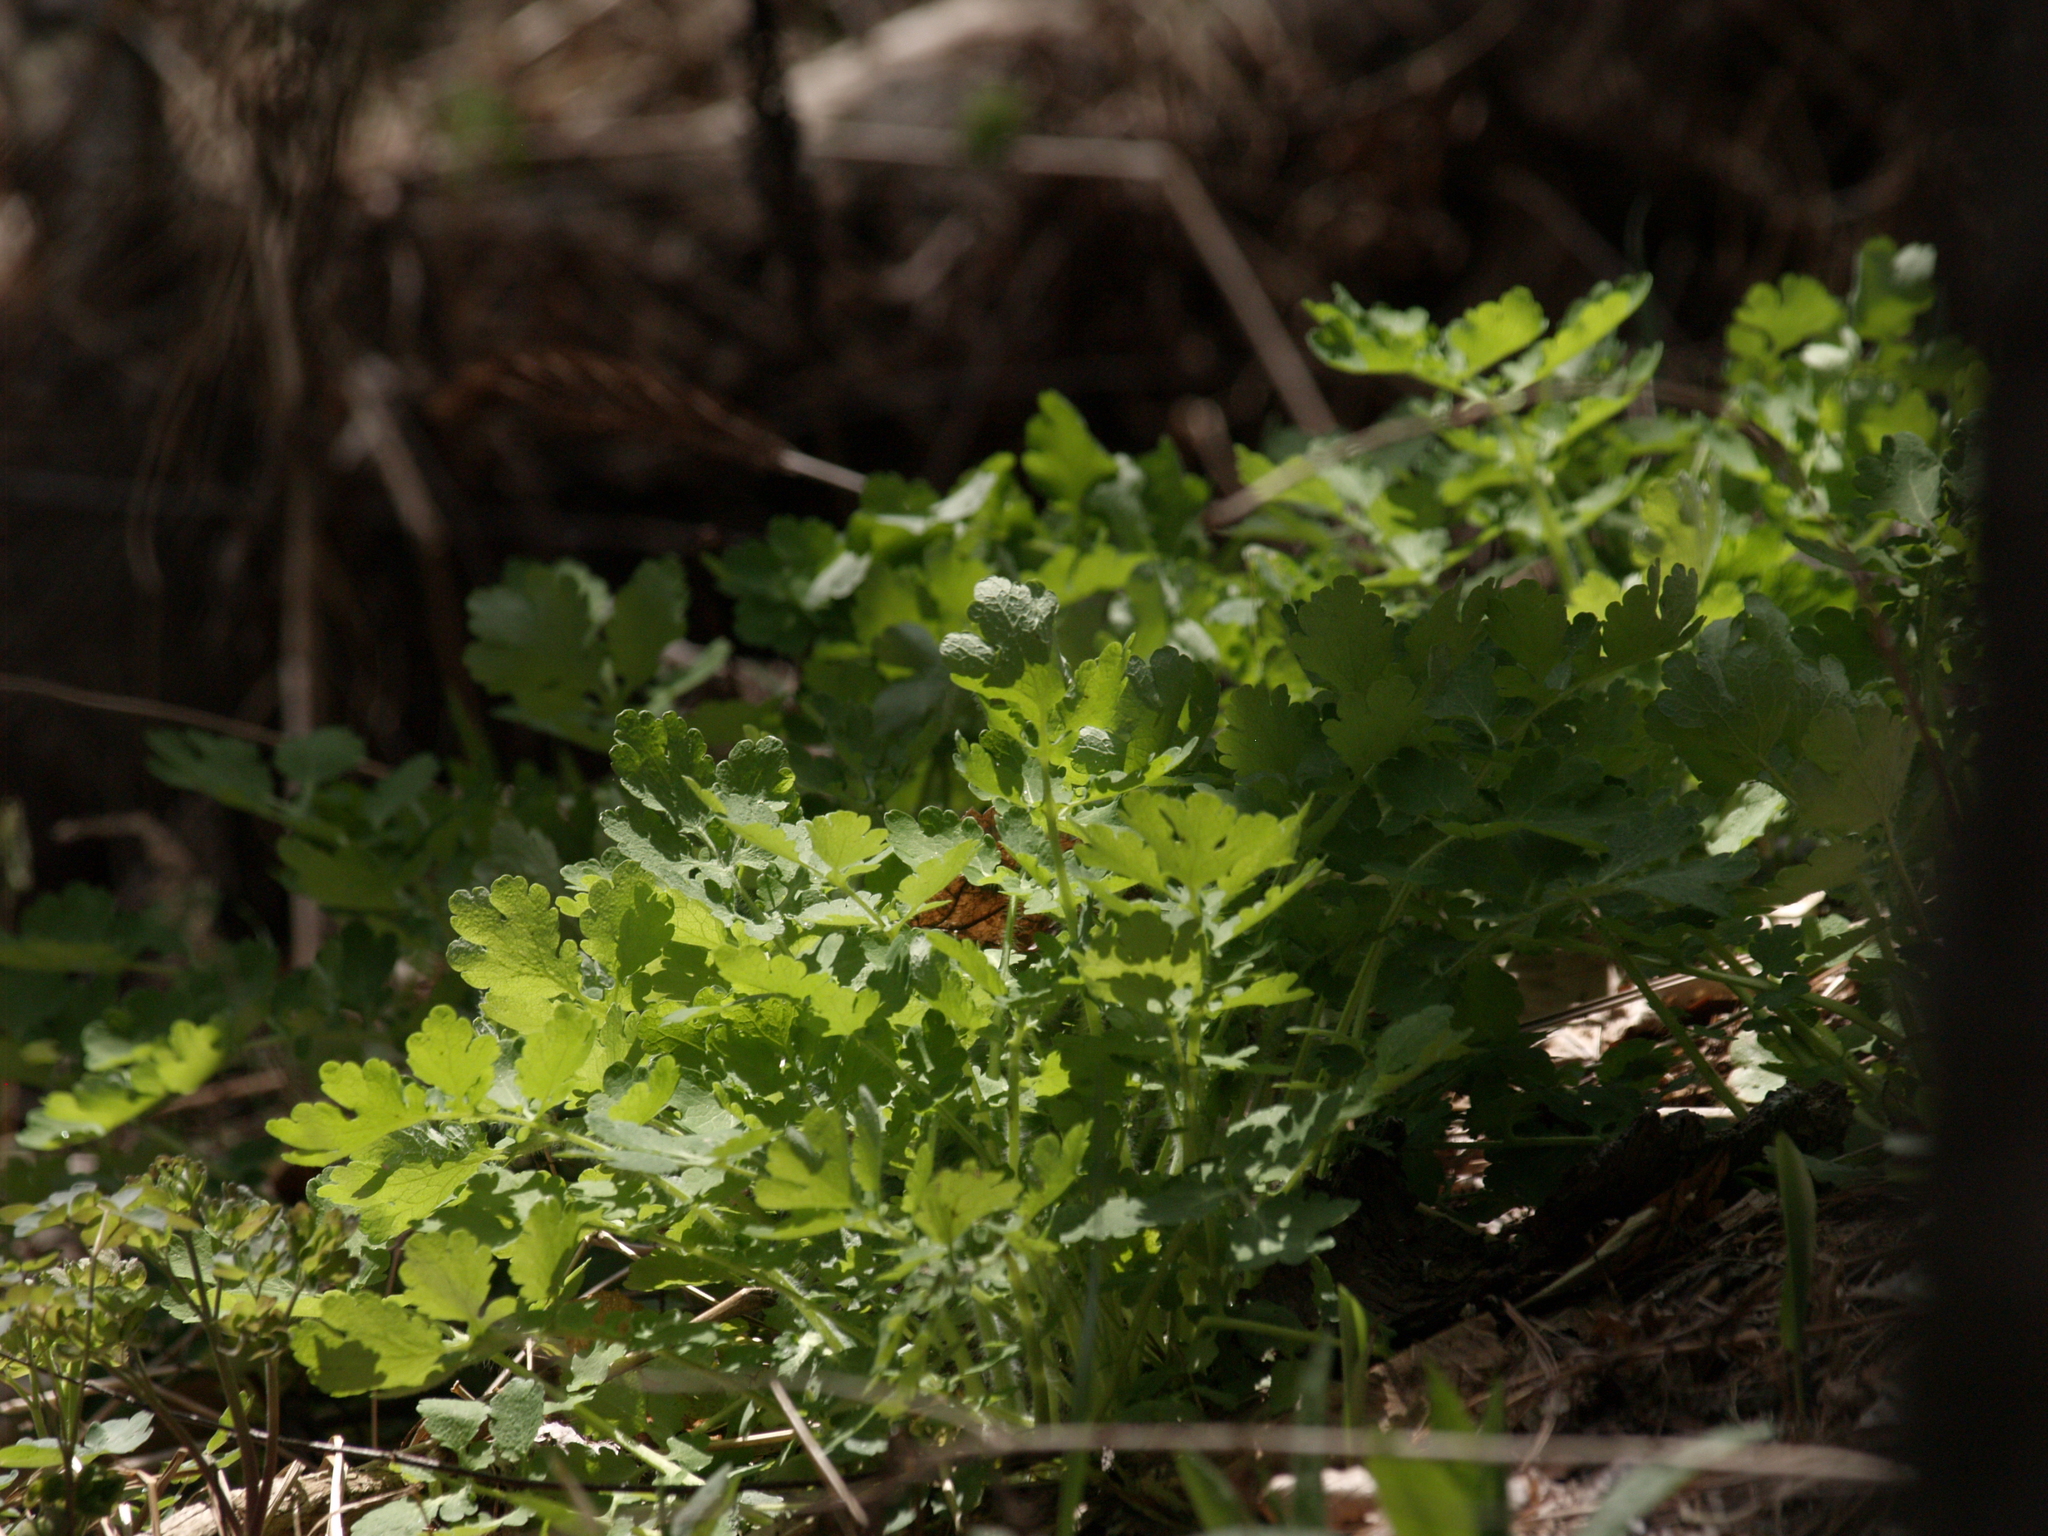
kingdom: Plantae
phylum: Tracheophyta
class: Magnoliopsida
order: Ranunculales
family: Papaveraceae
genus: Chelidonium
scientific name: Chelidonium majus
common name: Greater celandine
